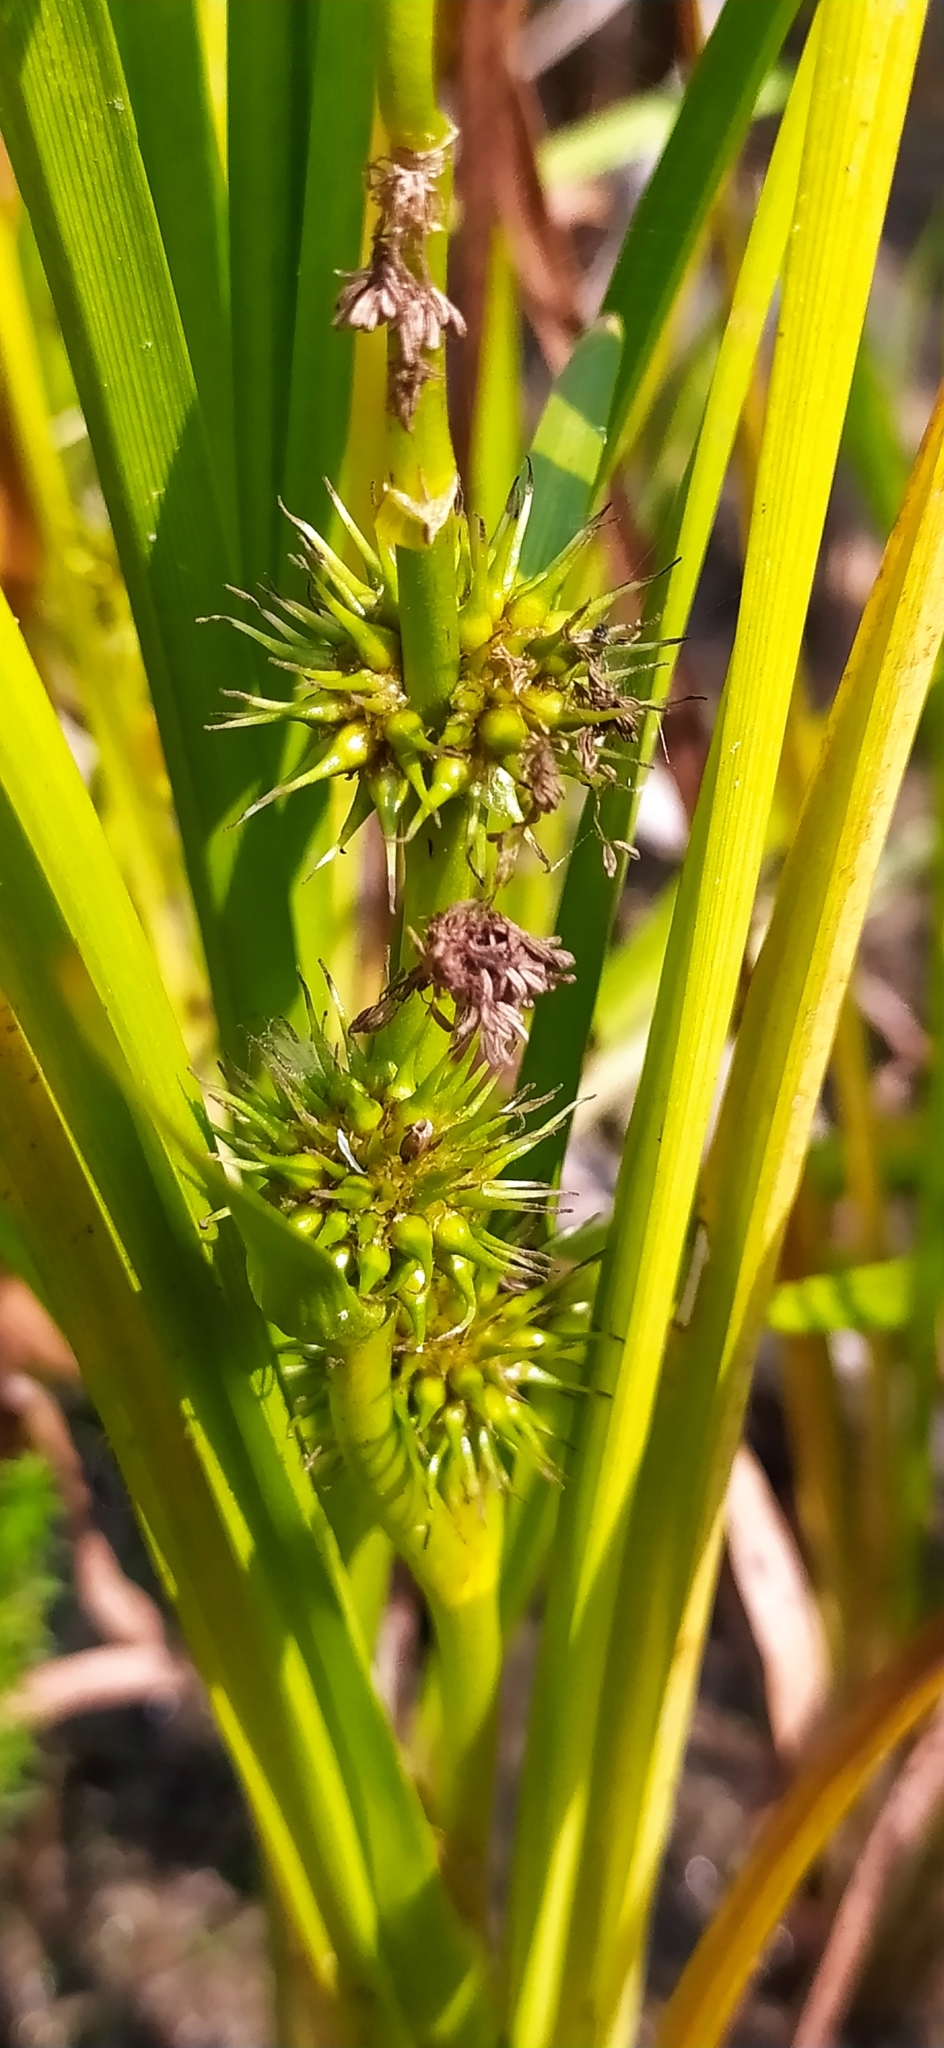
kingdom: Plantae
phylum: Tracheophyta
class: Liliopsida
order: Poales
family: Typhaceae
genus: Sparganium
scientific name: Sparganium emersum
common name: Unbranched bur-reed
